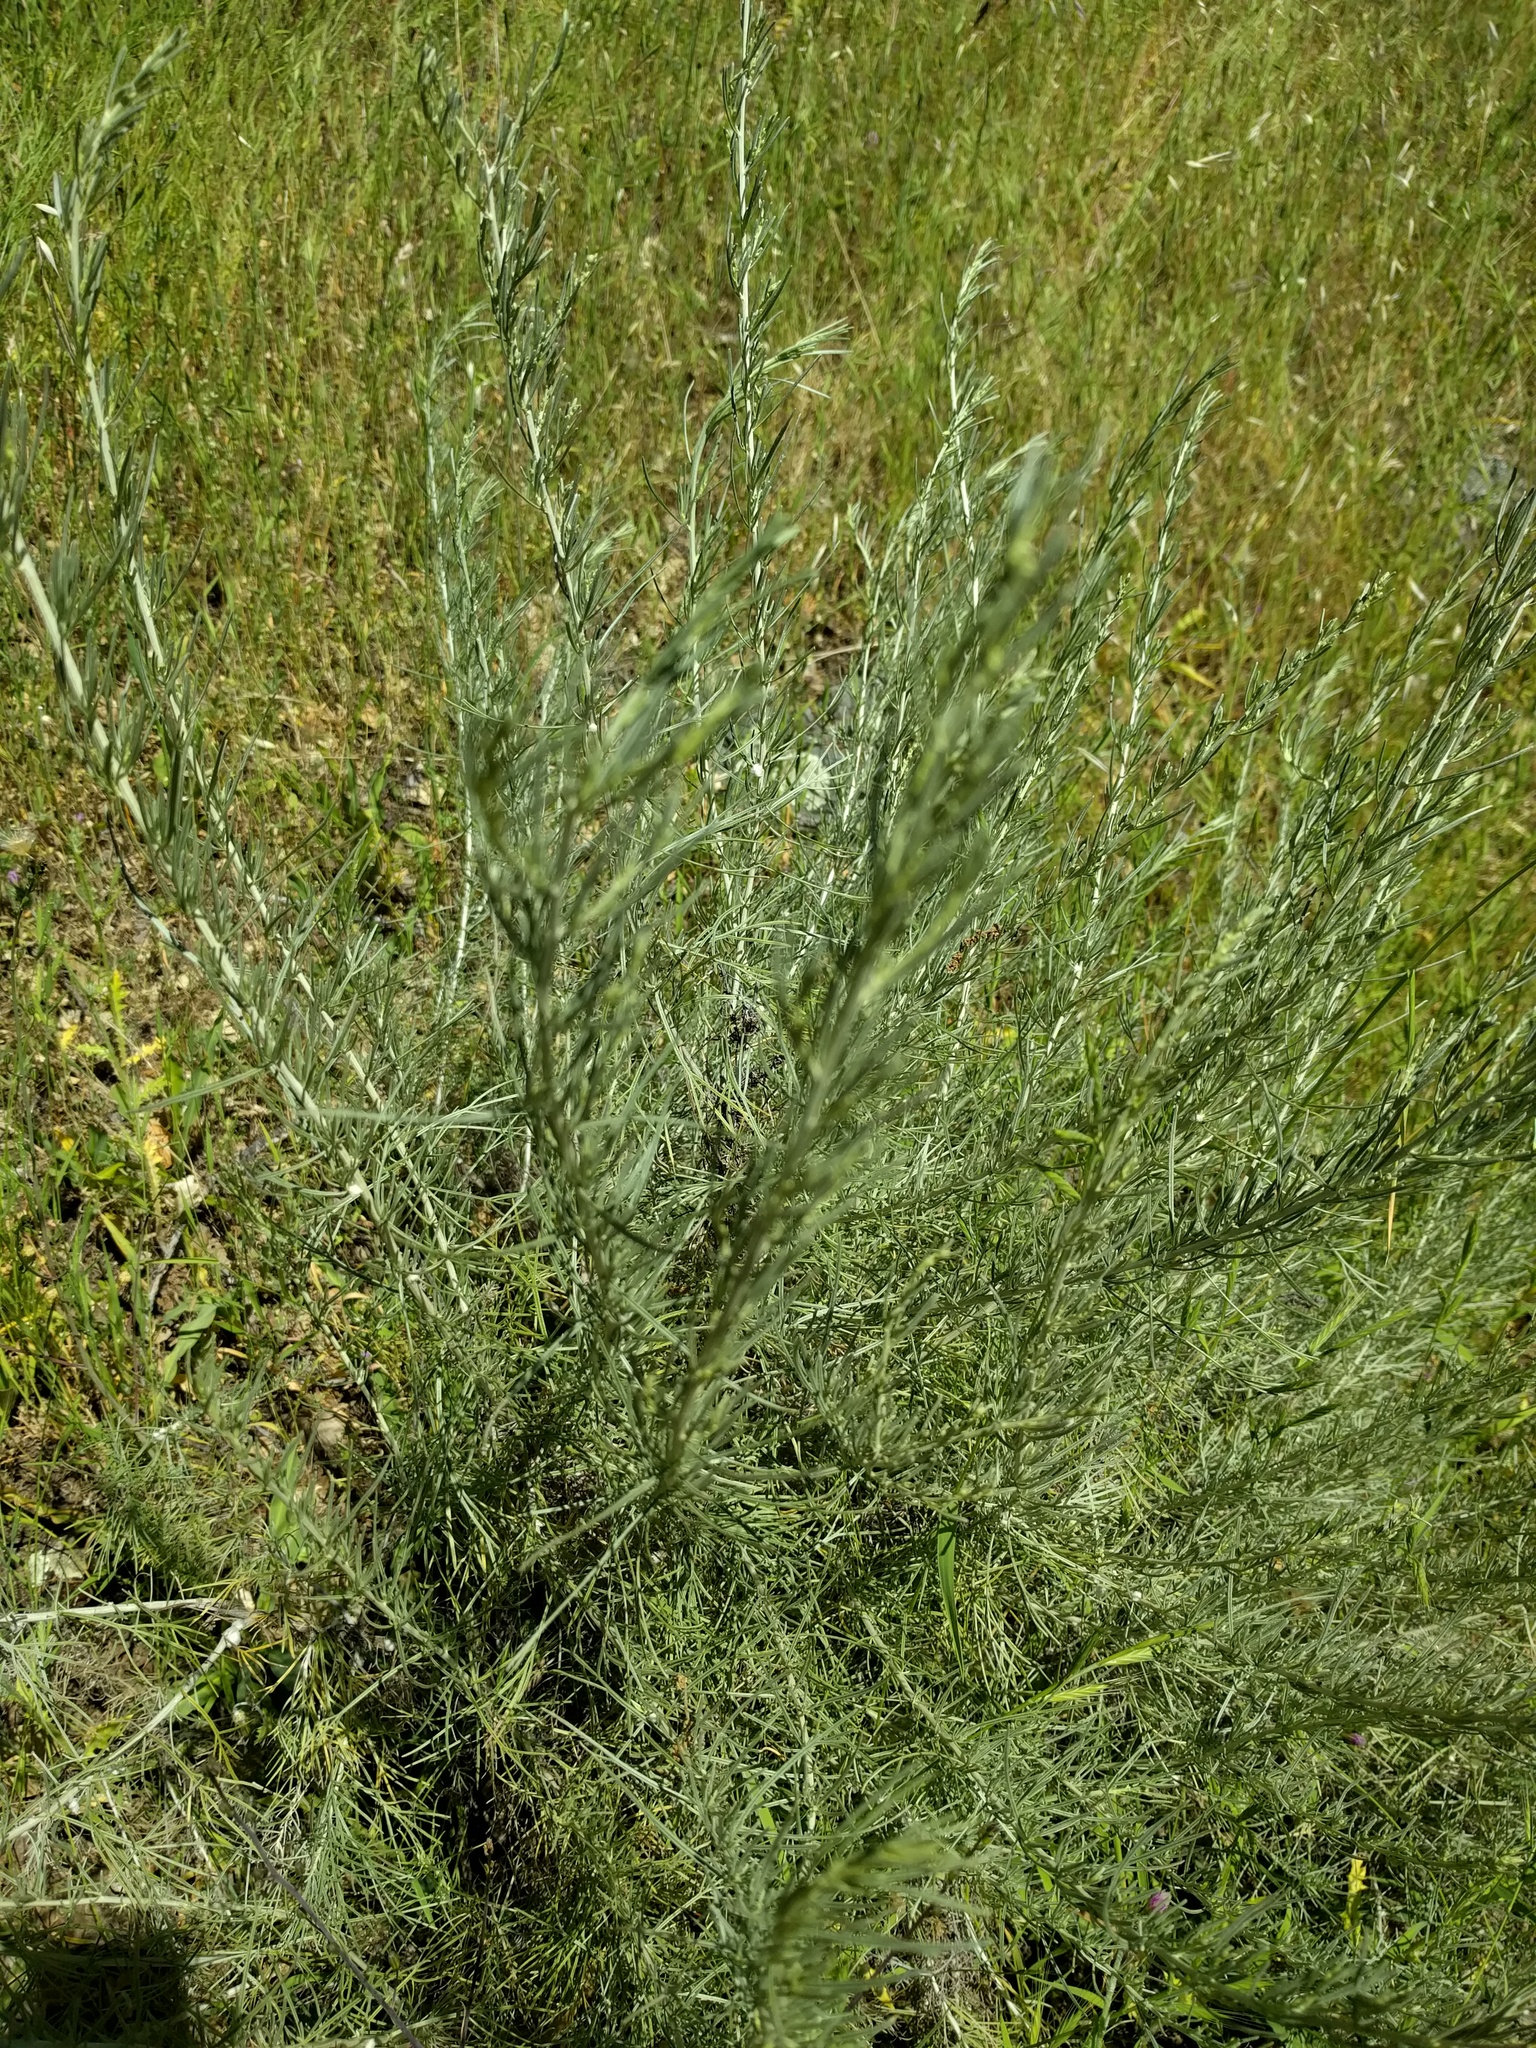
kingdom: Plantae
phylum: Tracheophyta
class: Magnoliopsida
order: Asterales
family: Asteraceae
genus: Artemisia
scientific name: Artemisia californica
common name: California sagebrush
